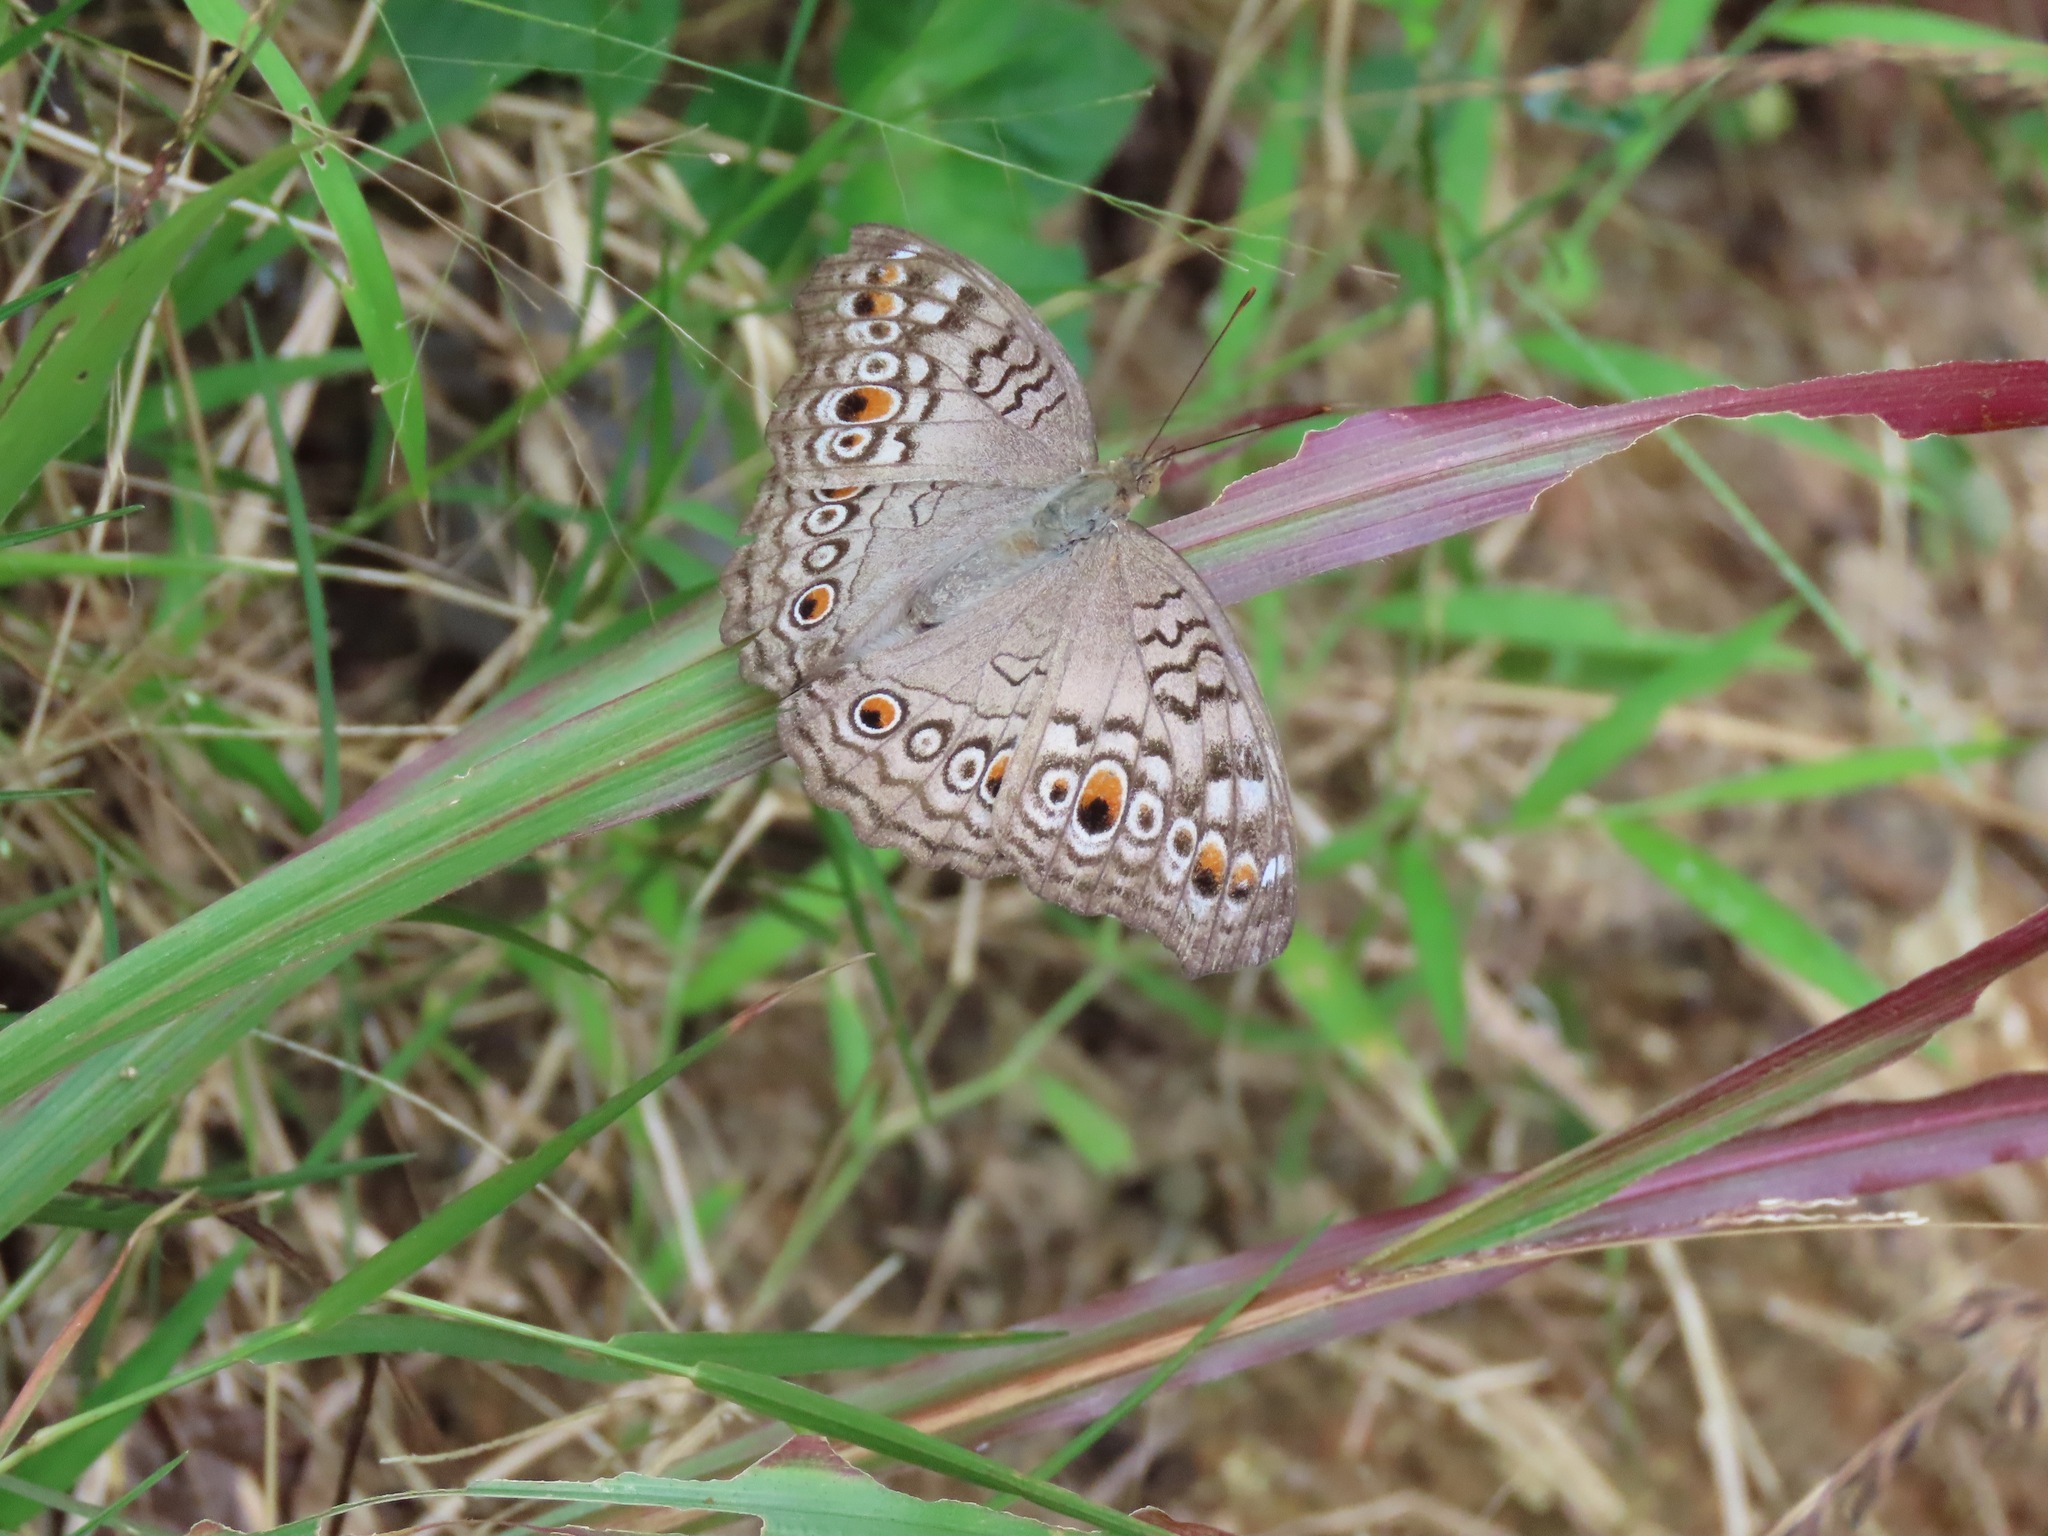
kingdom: Animalia
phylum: Arthropoda
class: Insecta
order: Lepidoptera
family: Nymphalidae
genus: Junonia
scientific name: Junonia atlites
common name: Grey pansy
